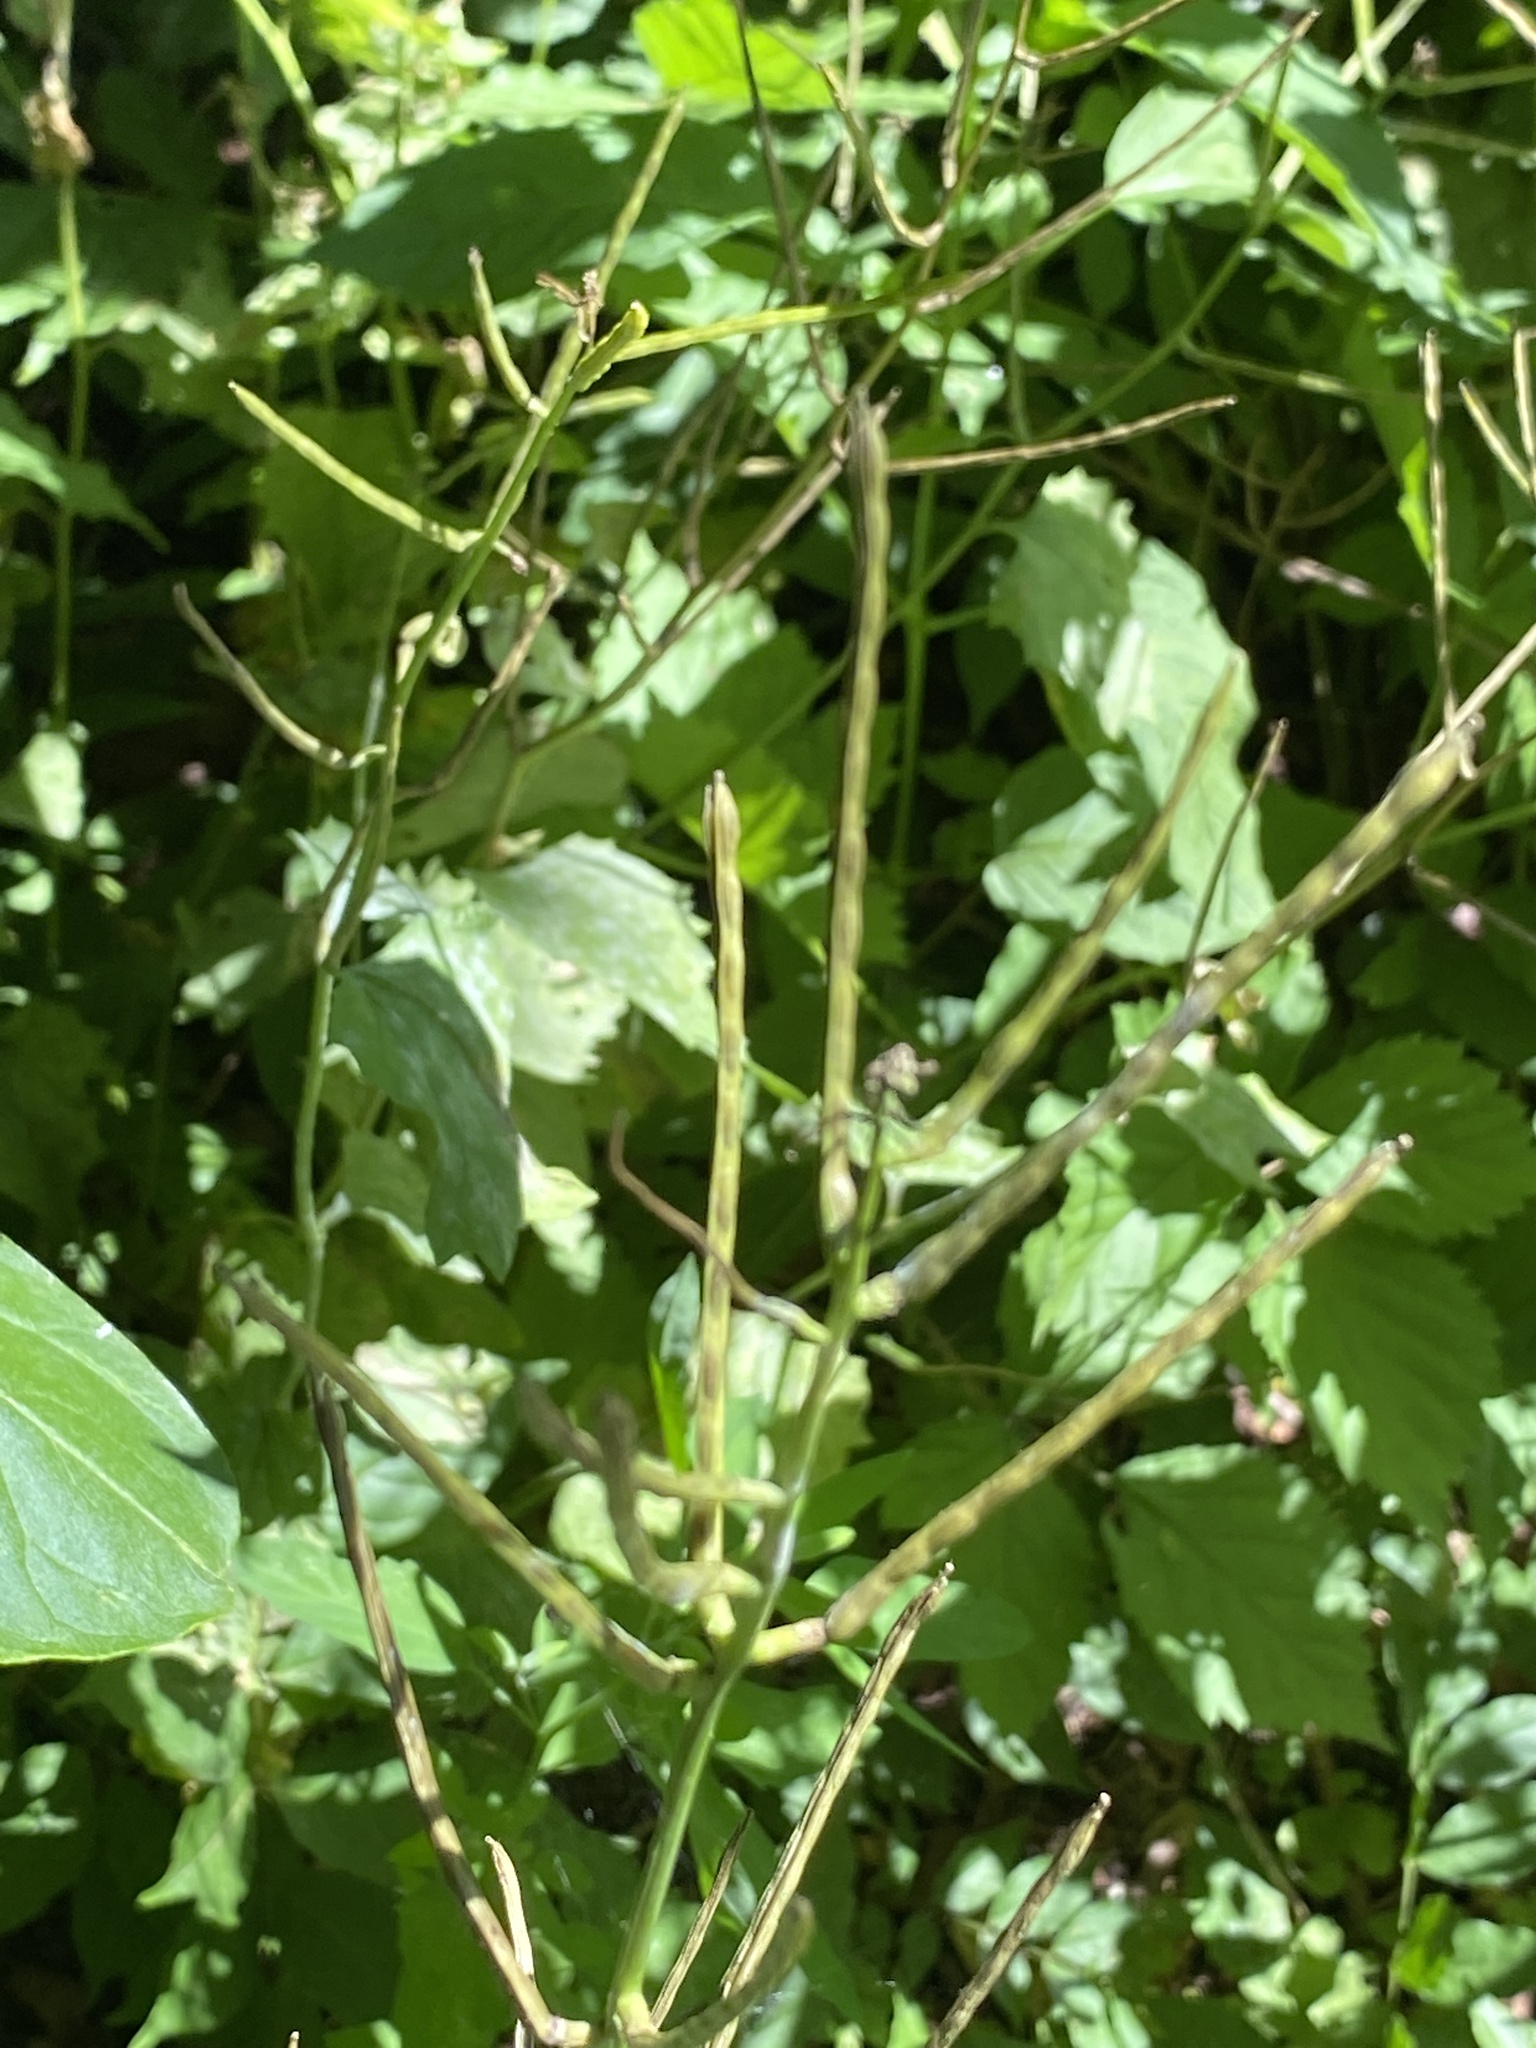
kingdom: Plantae
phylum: Tracheophyta
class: Magnoliopsida
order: Brassicales
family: Brassicaceae
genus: Alliaria
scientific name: Alliaria petiolata
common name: Garlic mustard
